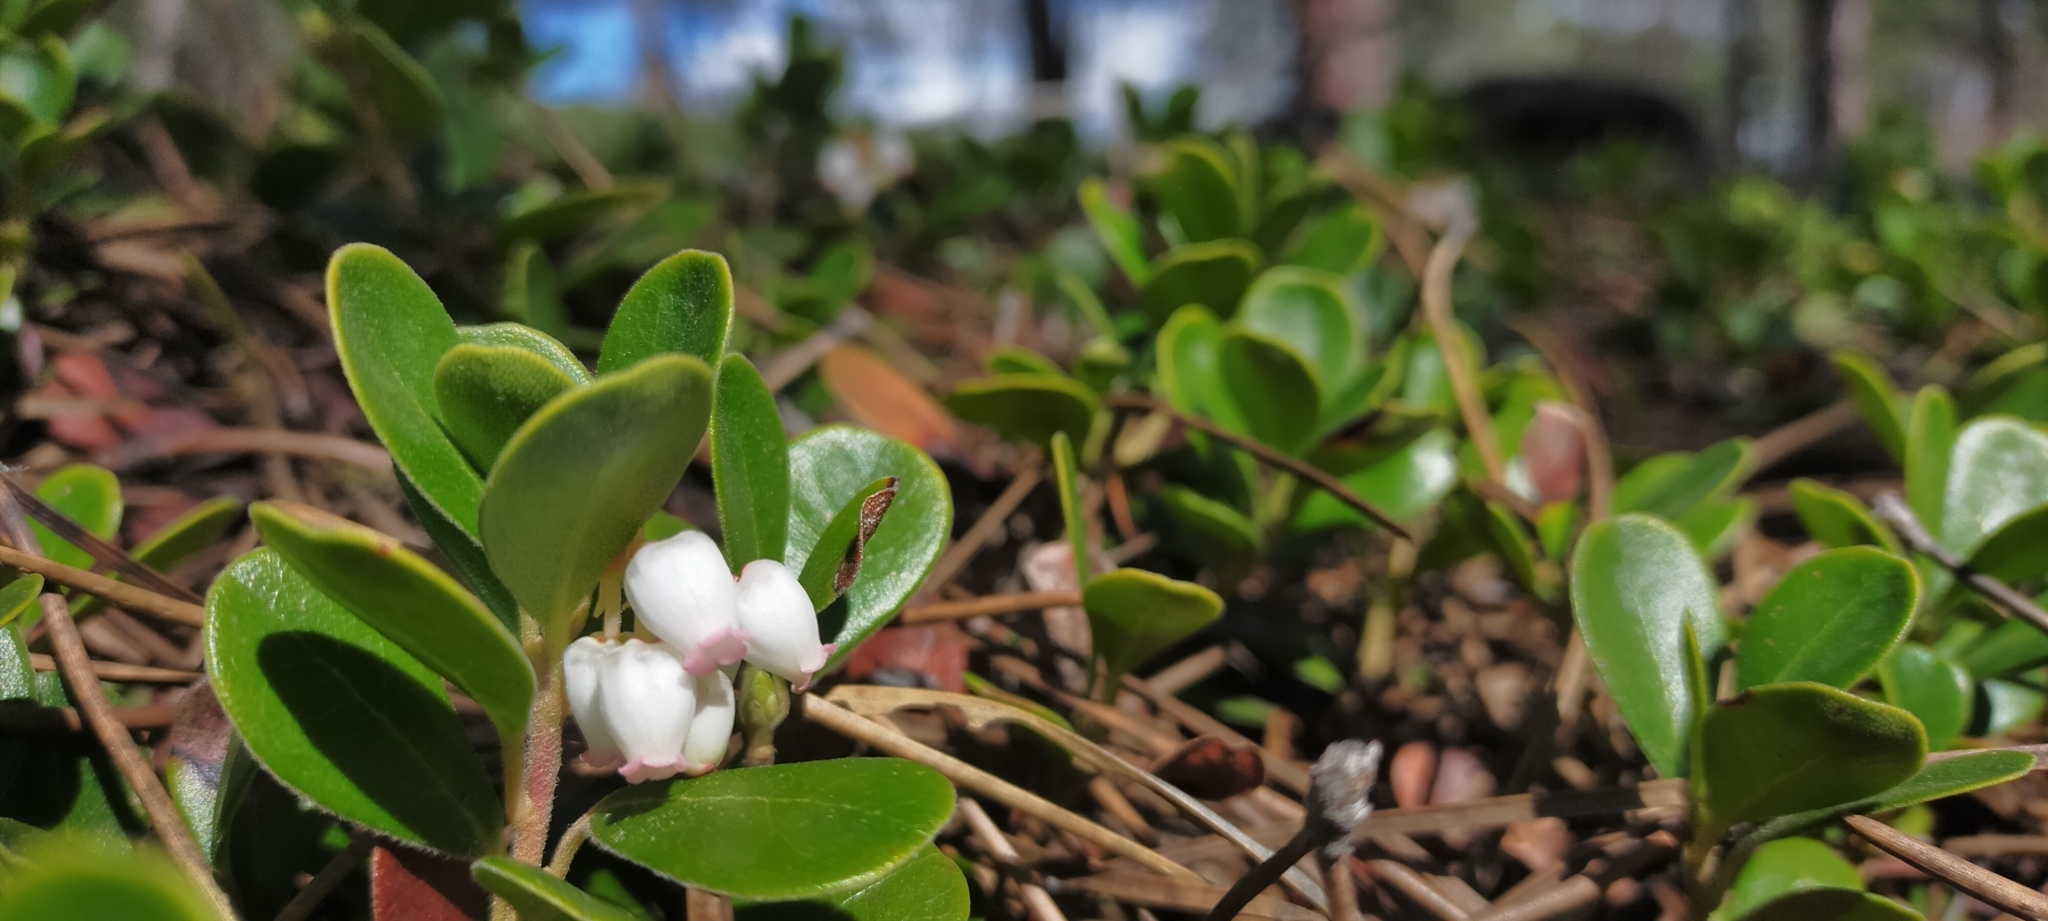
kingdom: Plantae
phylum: Tracheophyta
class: Magnoliopsida
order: Ericales
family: Ericaceae
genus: Arctostaphylos
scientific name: Arctostaphylos uva-ursi
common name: Bearberry
